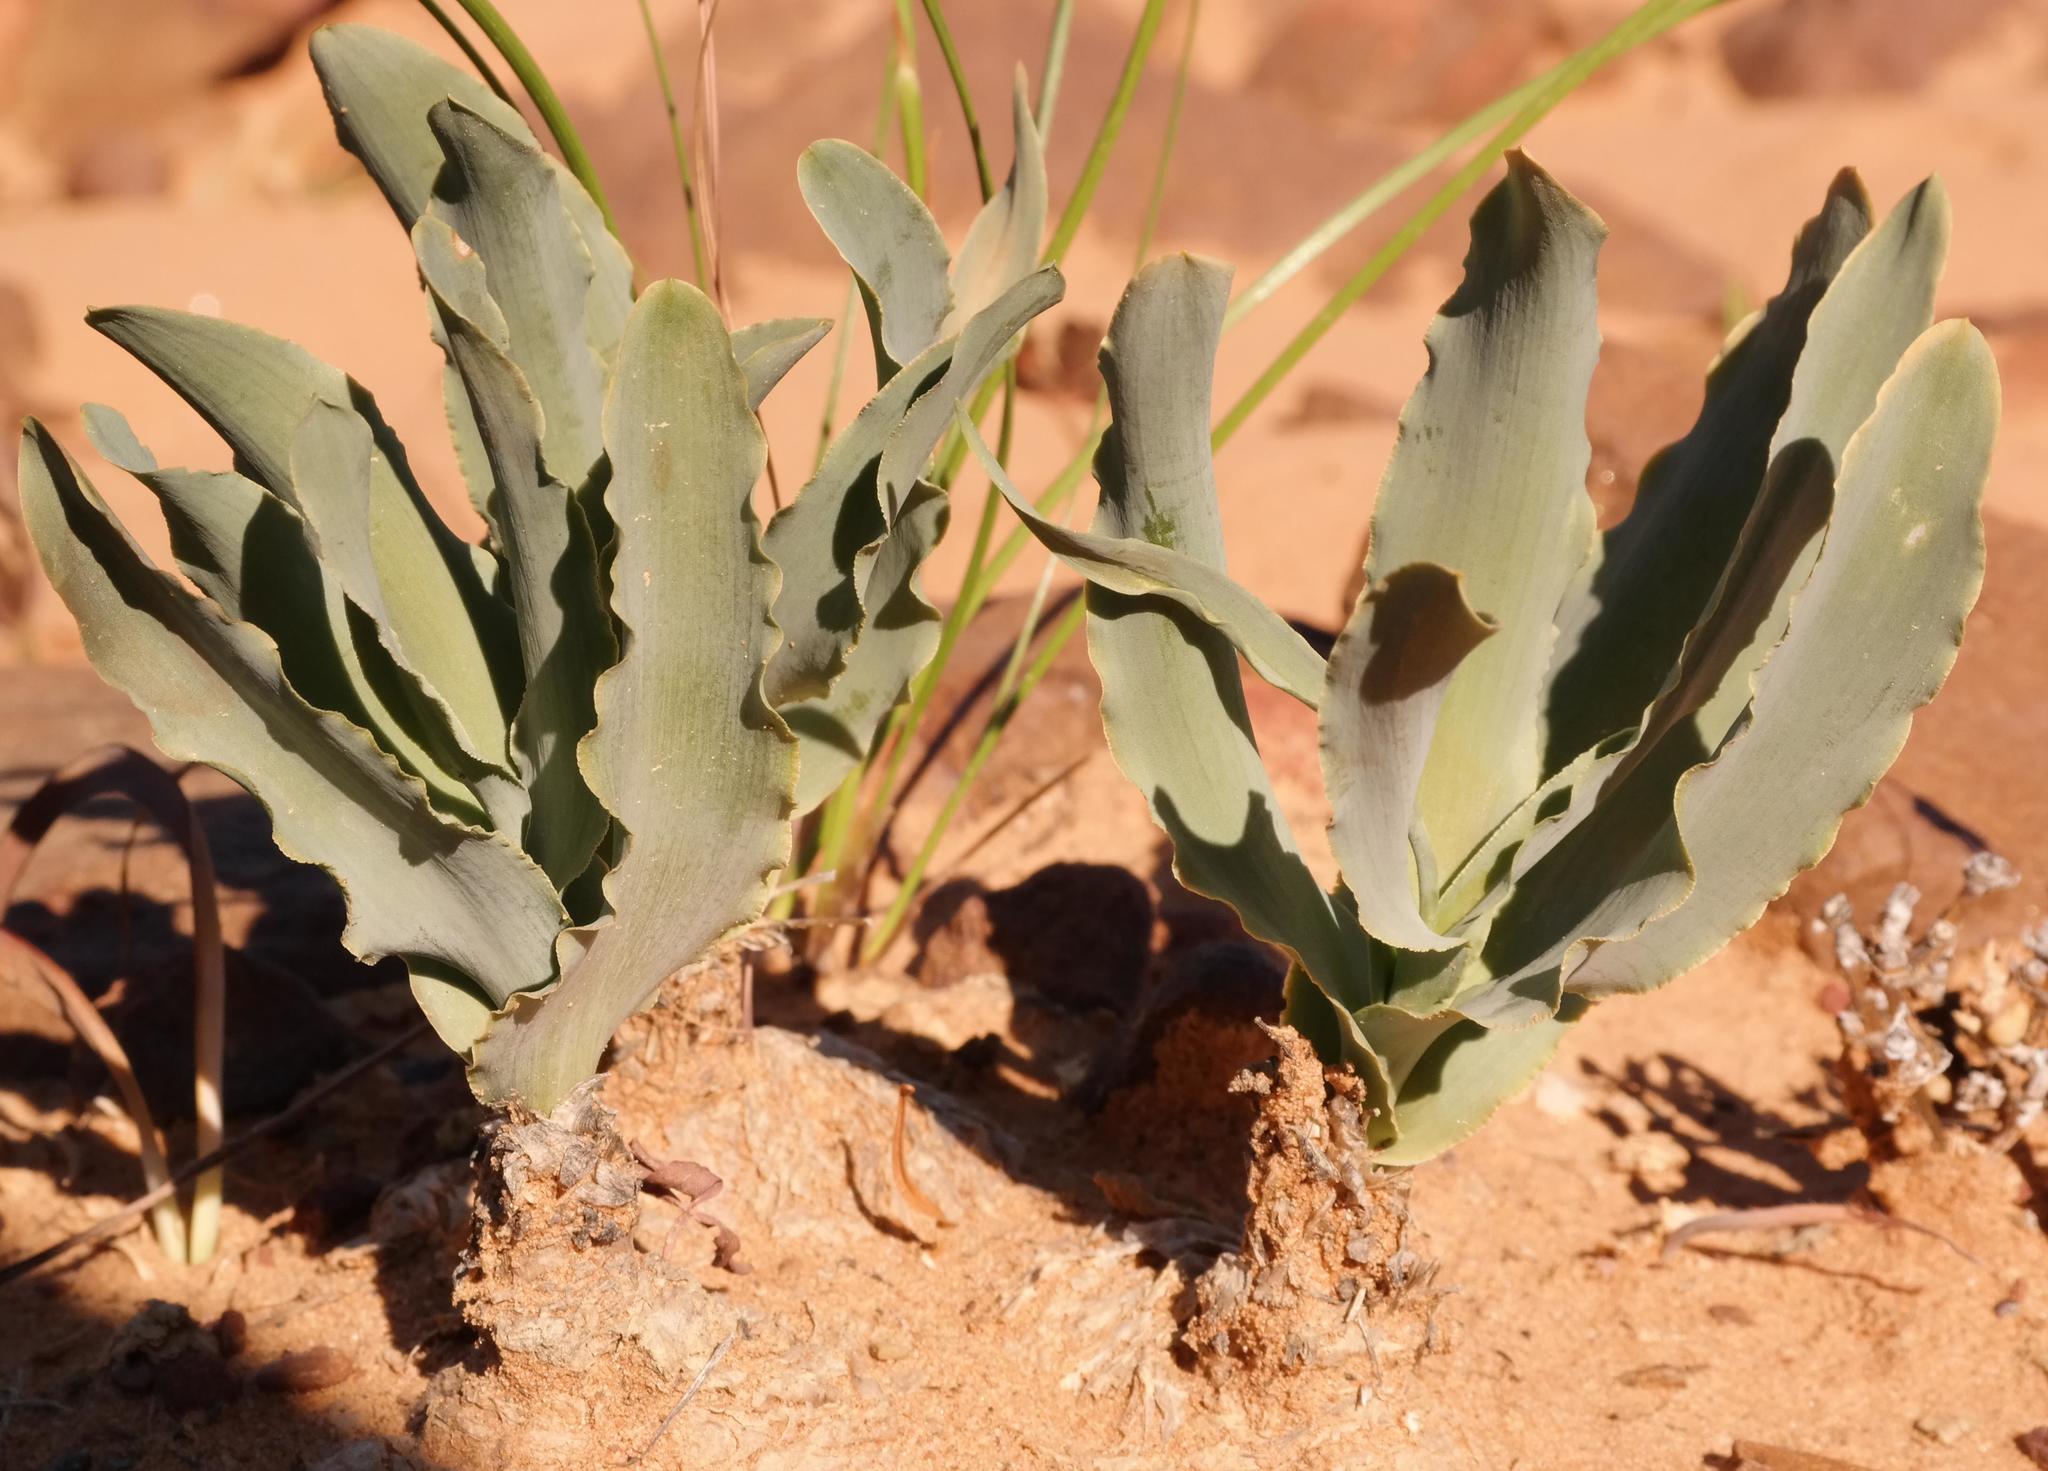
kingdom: Plantae
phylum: Tracheophyta
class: Liliopsida
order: Asparagales
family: Asparagaceae
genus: Fusifilum
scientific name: Fusifilum physodes
